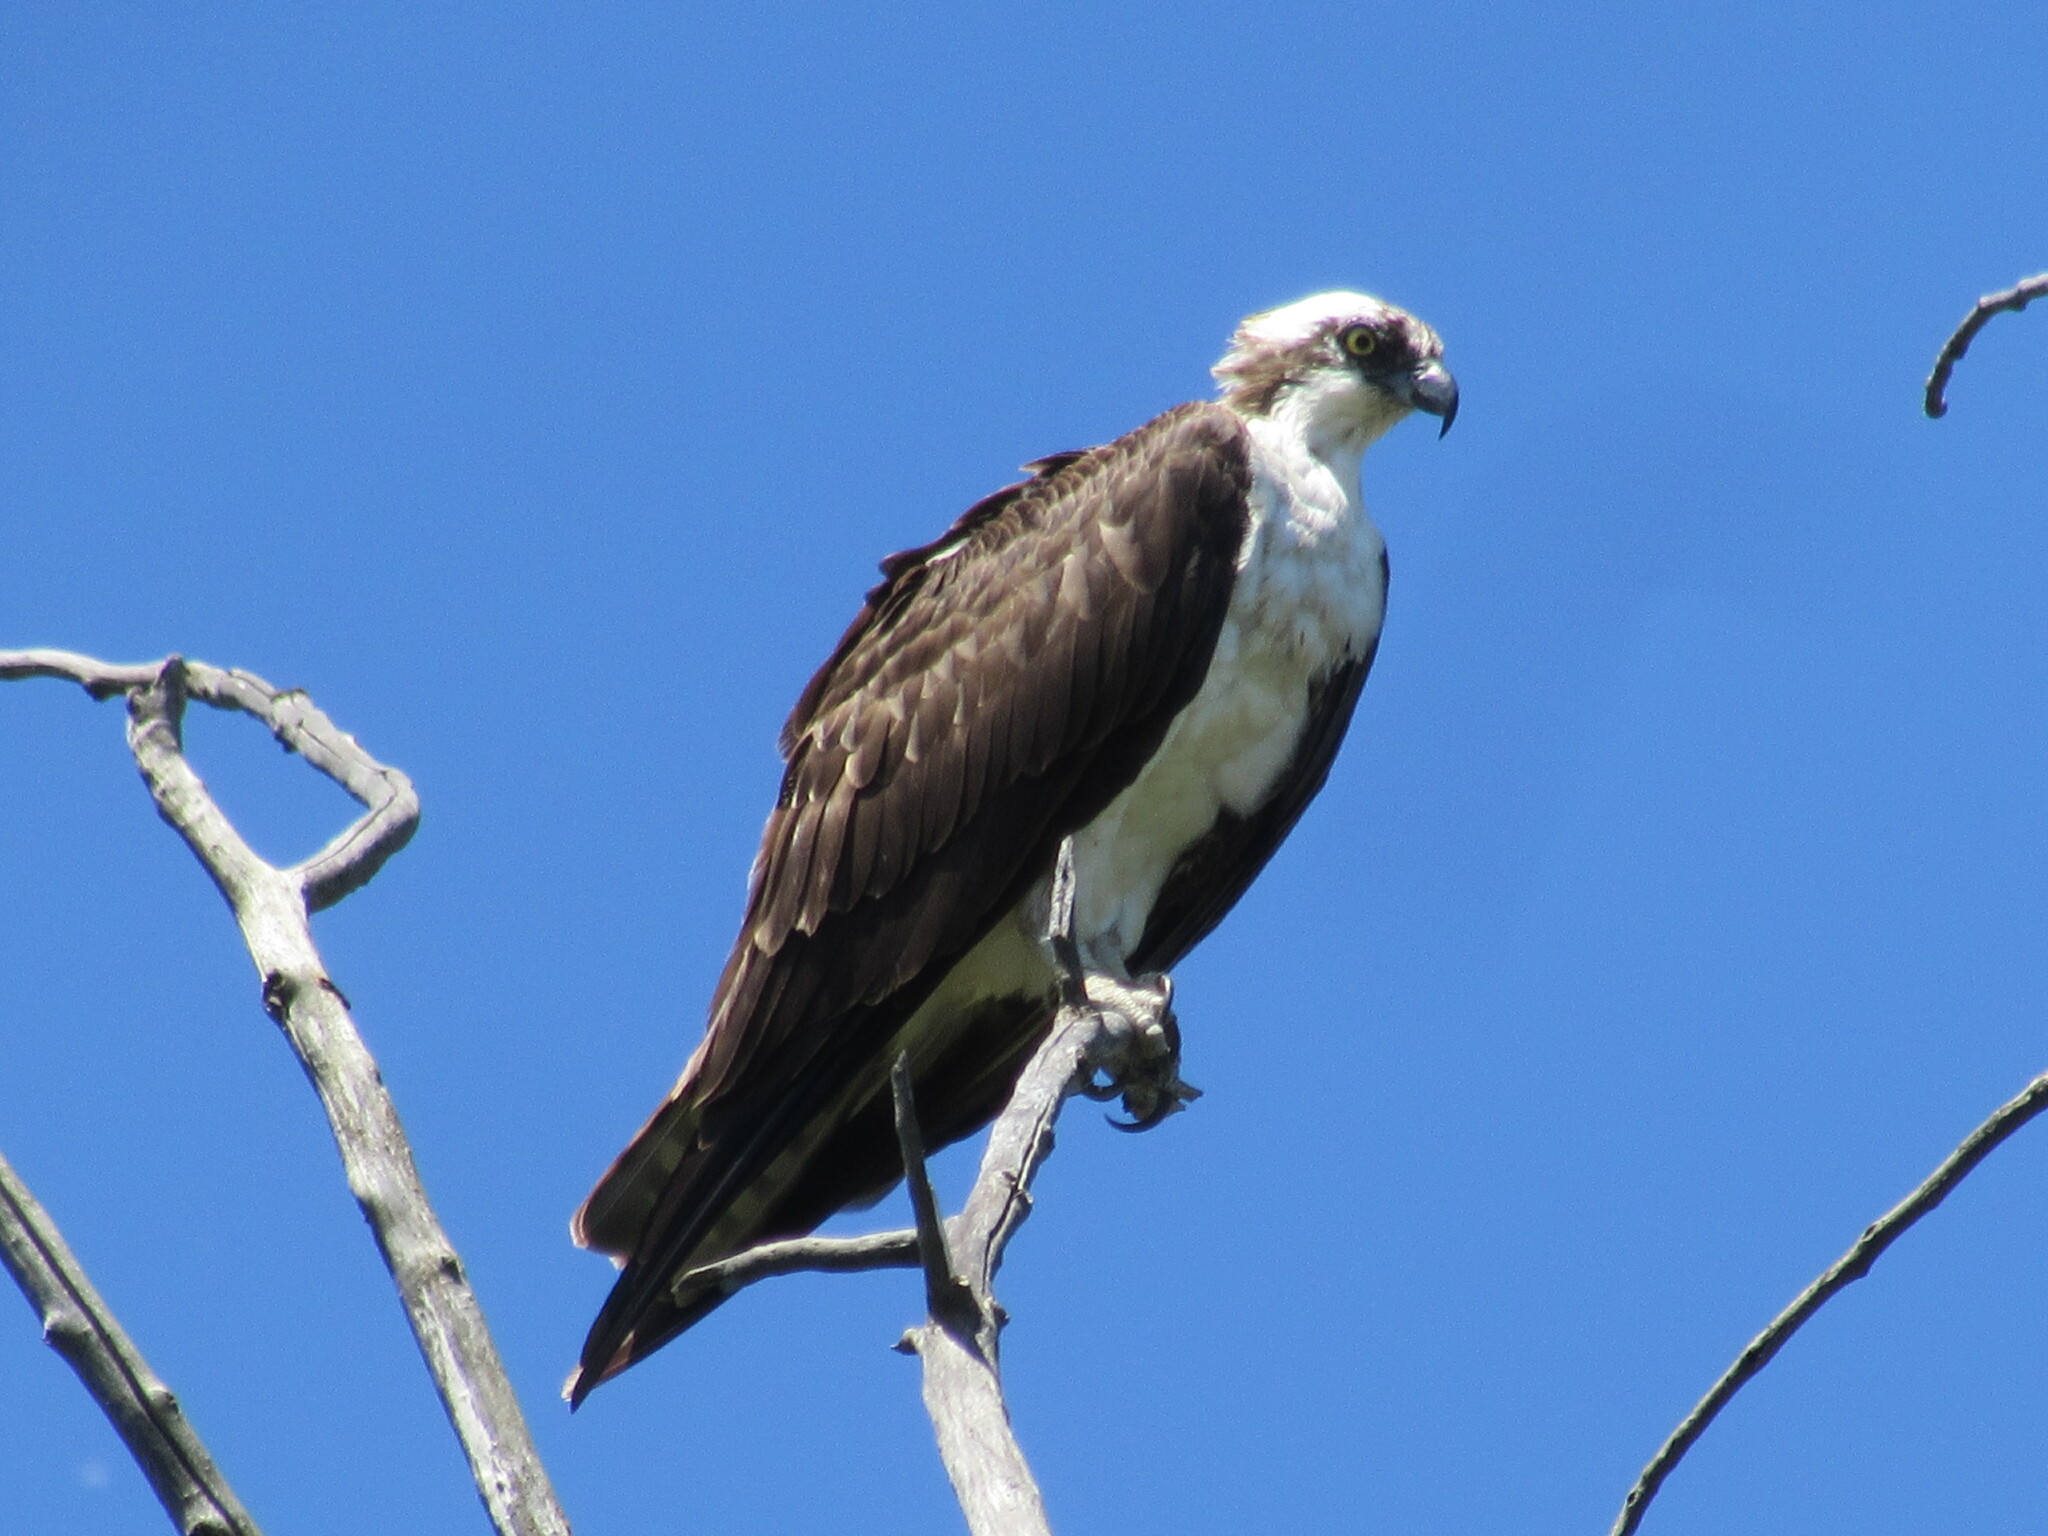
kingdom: Animalia
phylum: Chordata
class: Aves
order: Accipitriformes
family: Pandionidae
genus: Pandion
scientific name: Pandion haliaetus
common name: Osprey
